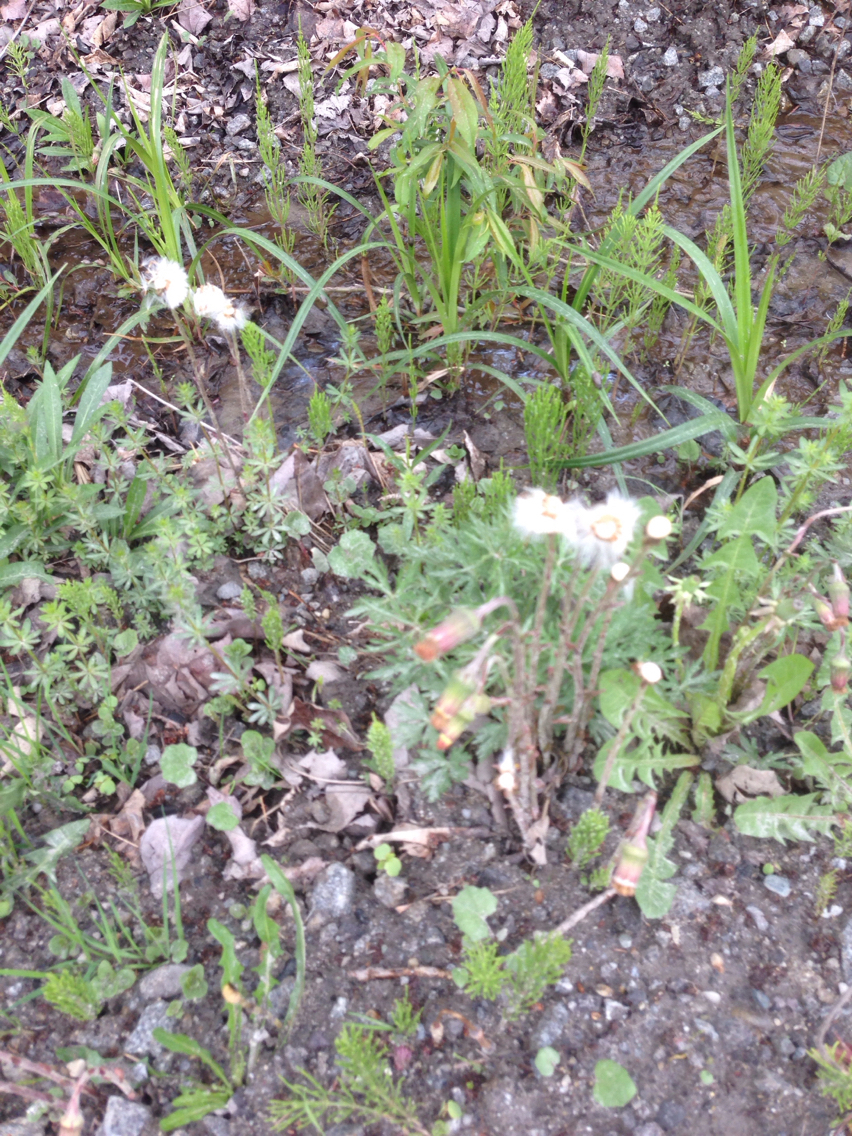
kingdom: Plantae
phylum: Tracheophyta
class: Magnoliopsida
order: Asterales
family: Asteraceae
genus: Tussilago
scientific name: Tussilago farfara
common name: Coltsfoot
